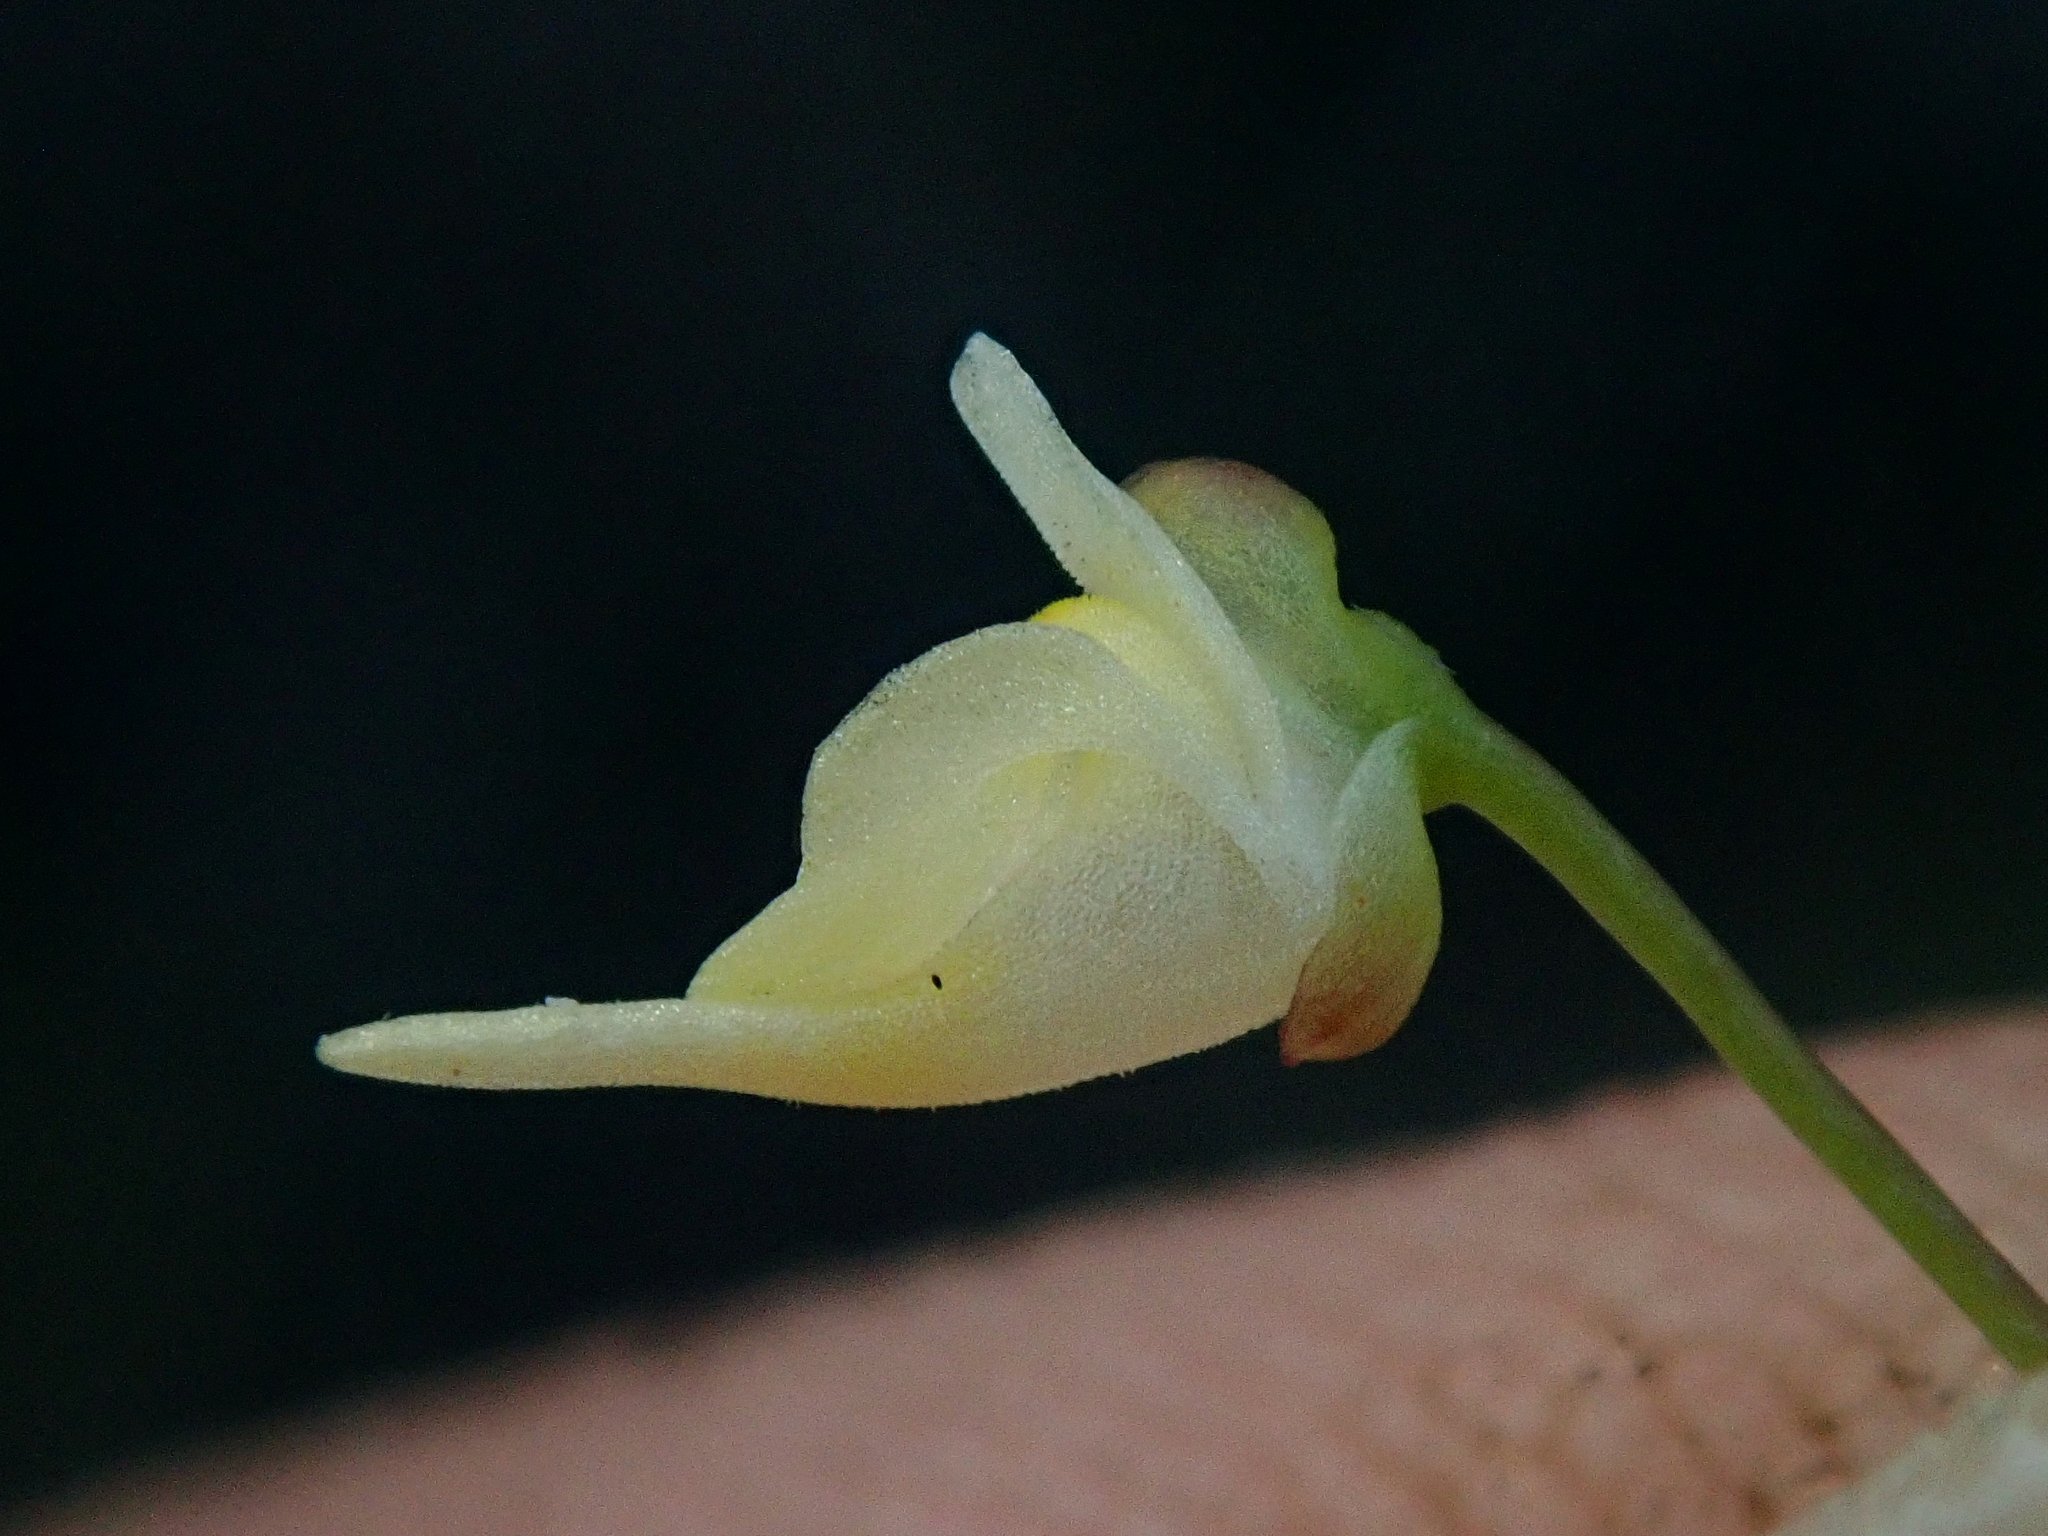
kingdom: Plantae
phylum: Tracheophyta
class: Magnoliopsida
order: Lamiales
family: Lentibulariaceae
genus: Utricularia
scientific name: Utricularia amethystina
